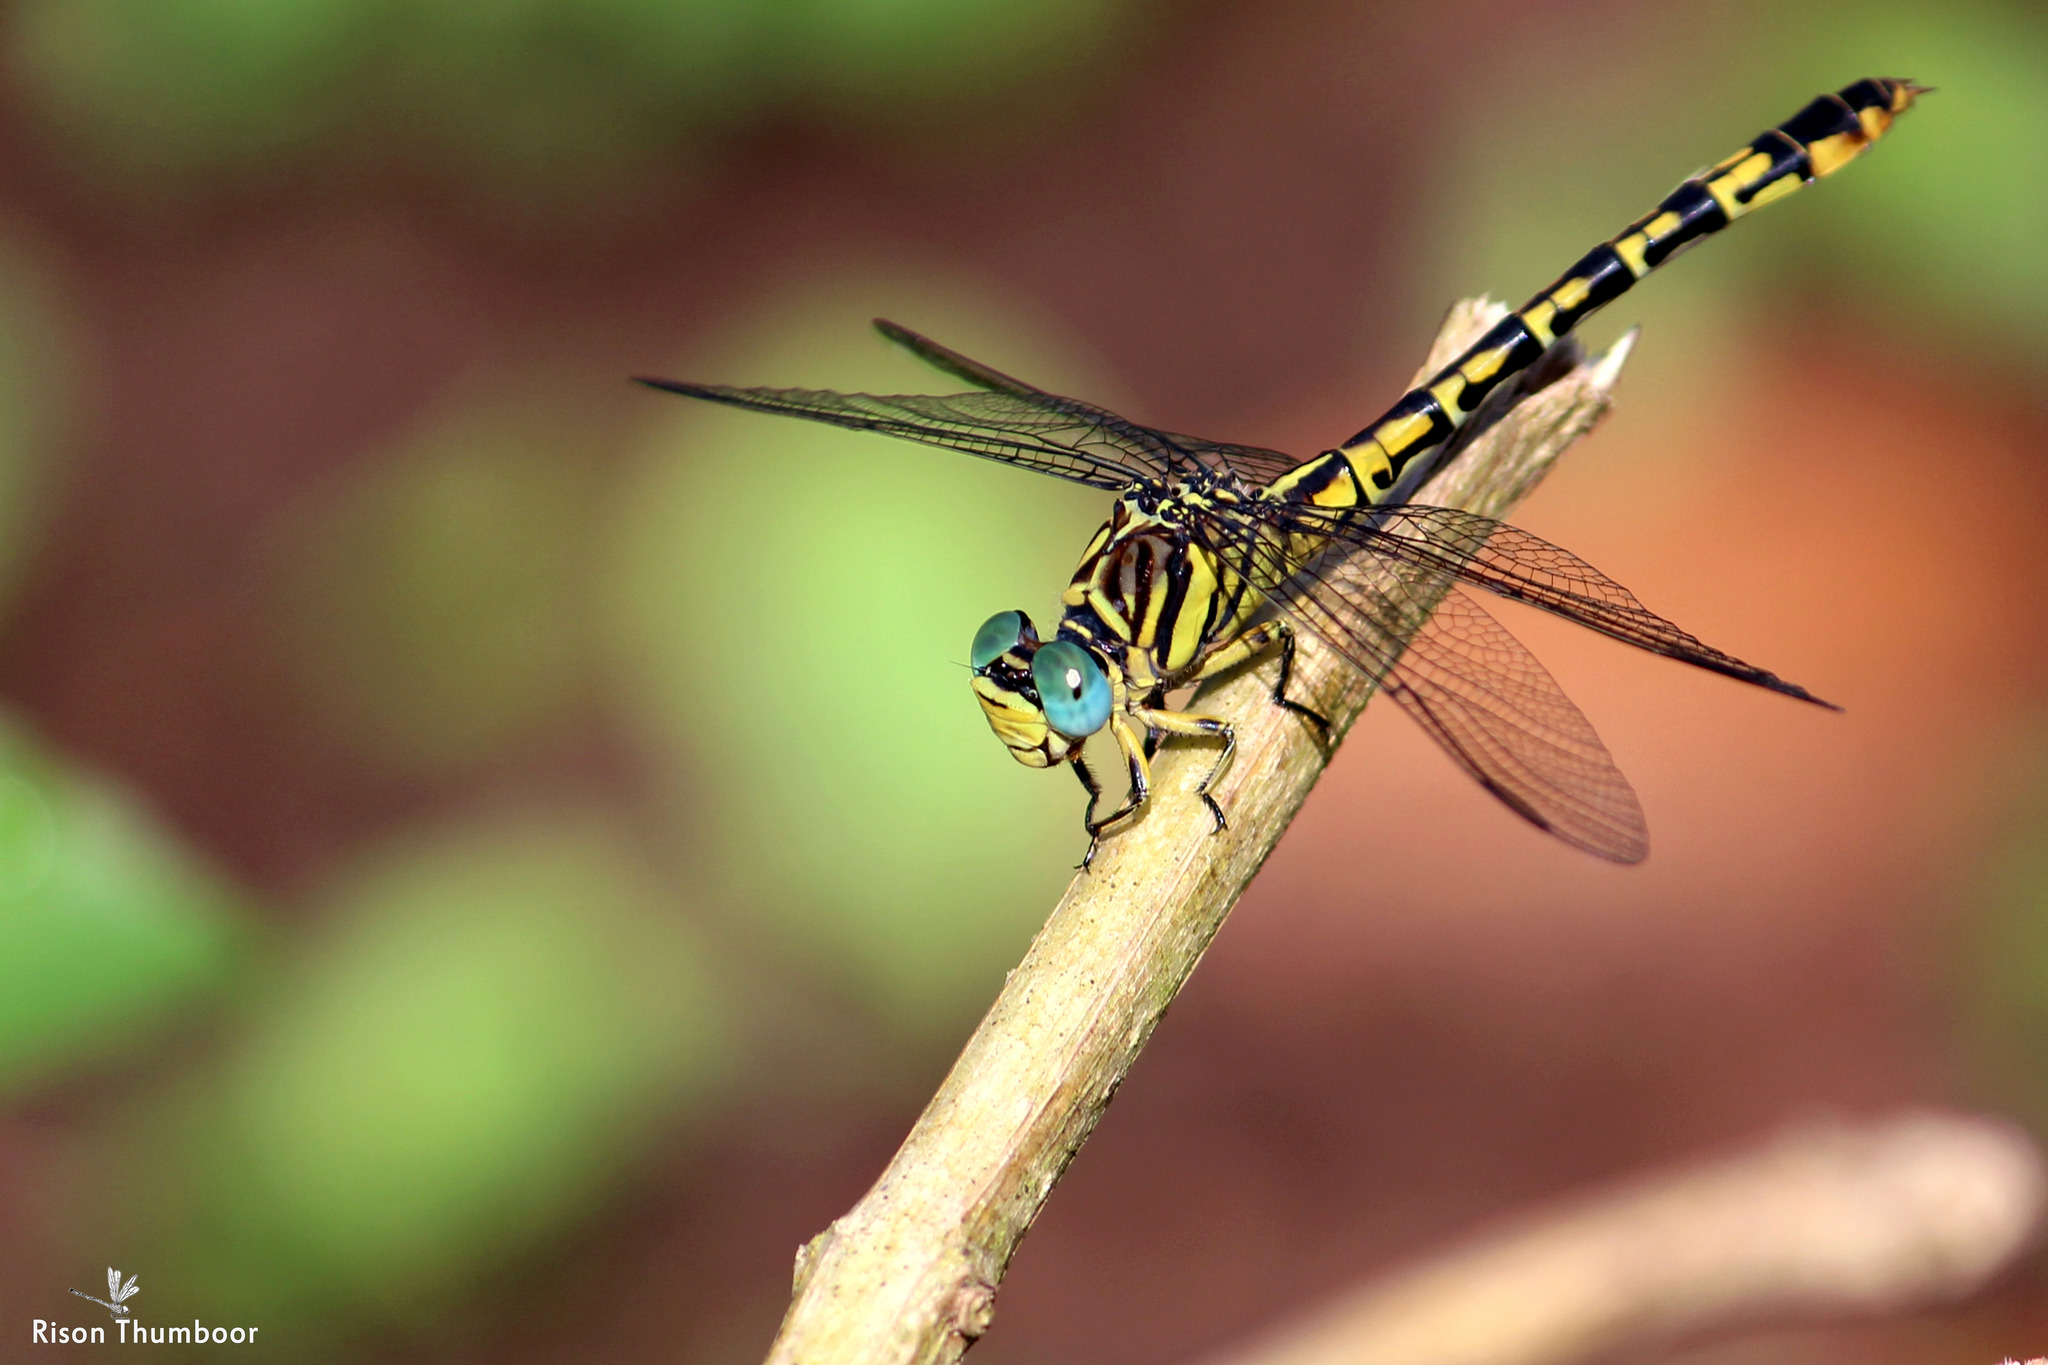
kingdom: Animalia
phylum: Arthropoda
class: Insecta
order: Odonata
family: Gomphidae
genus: Paragomphus
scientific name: Paragomphus lineatus
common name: Lined hooktail
